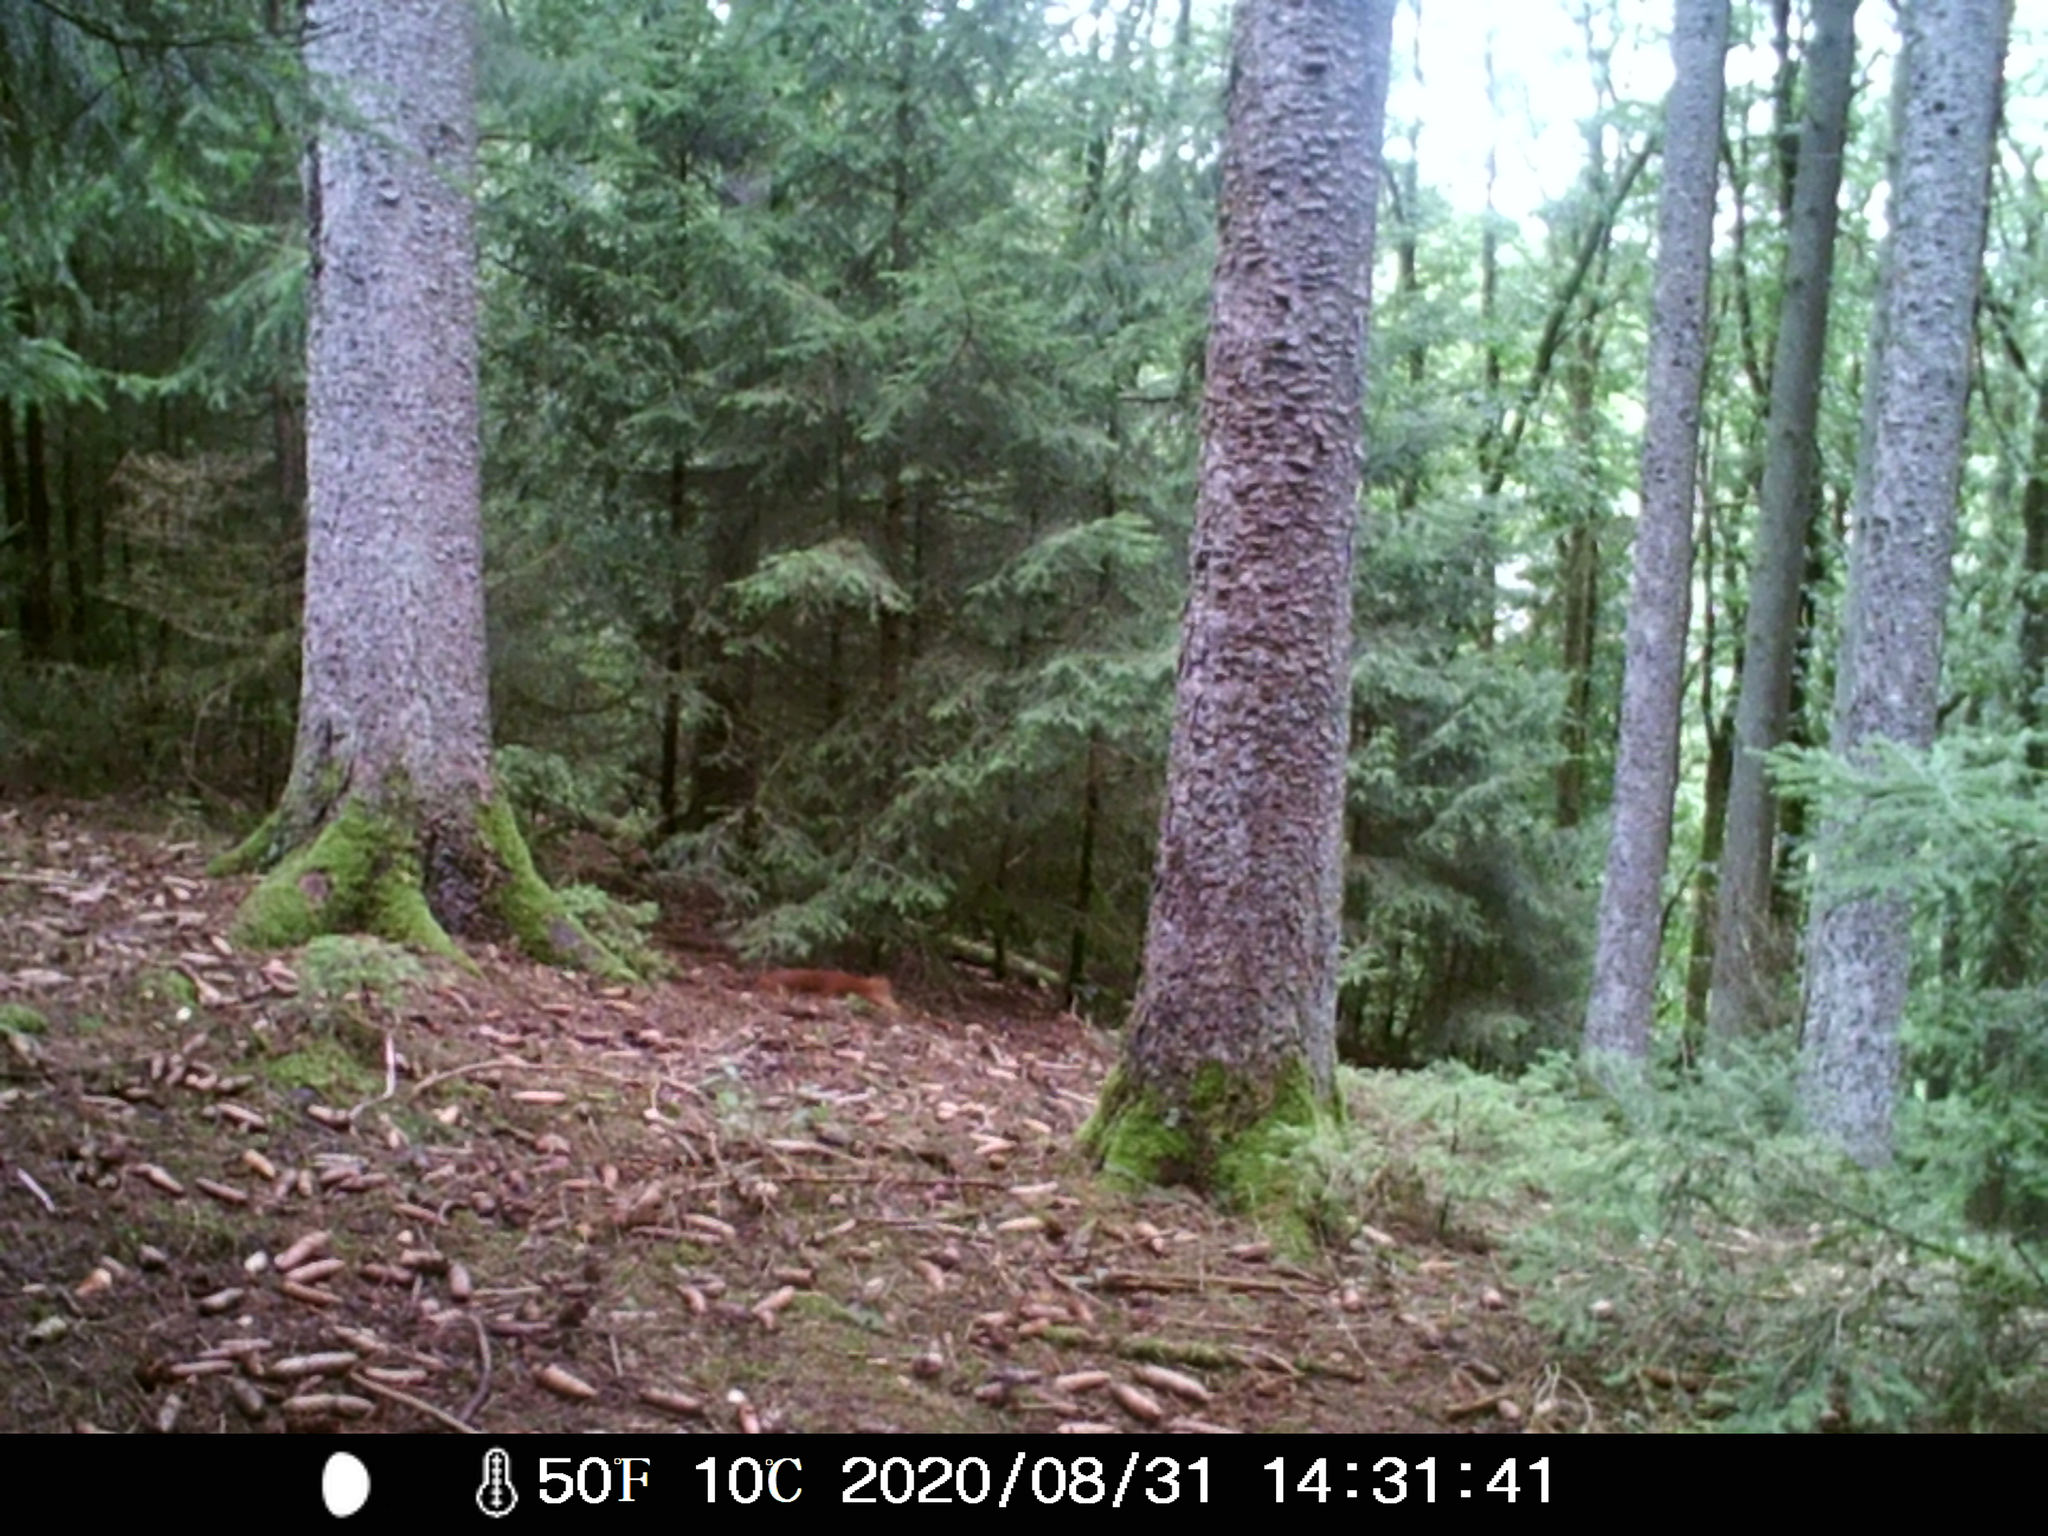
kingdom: Animalia
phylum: Chordata
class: Mammalia
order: Rodentia
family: Sciuridae
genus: Sciurus
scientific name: Sciurus vulgaris
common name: Eurasian red squirrel
